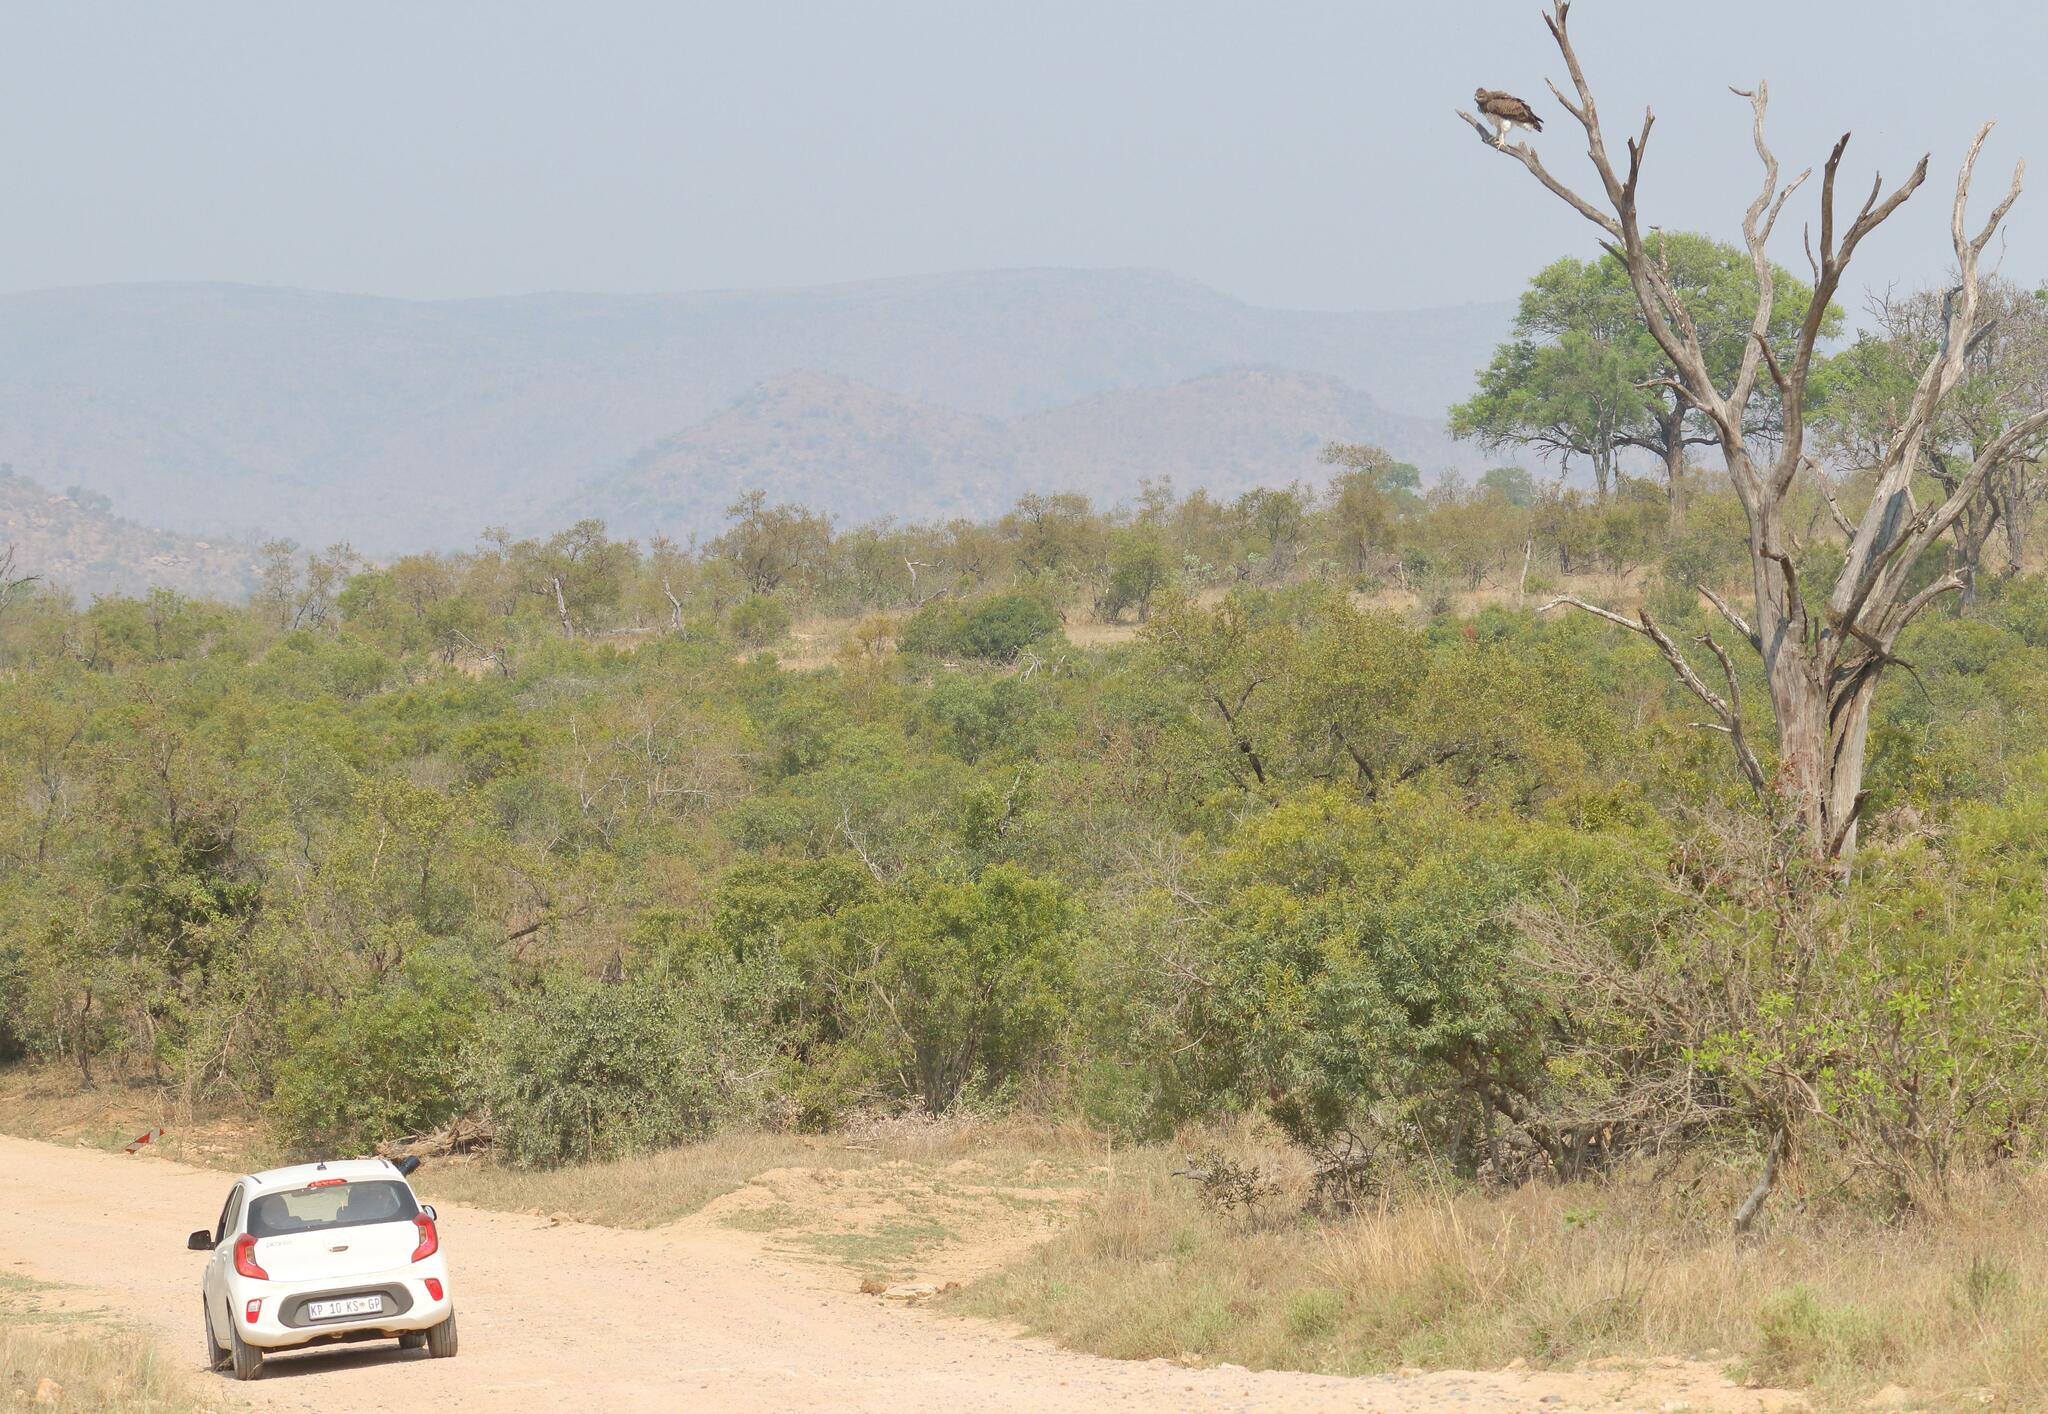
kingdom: Animalia
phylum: Chordata
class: Aves
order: Accipitriformes
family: Accipitridae
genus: Polemaetus
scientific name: Polemaetus bellicosus
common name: Martial eagle
